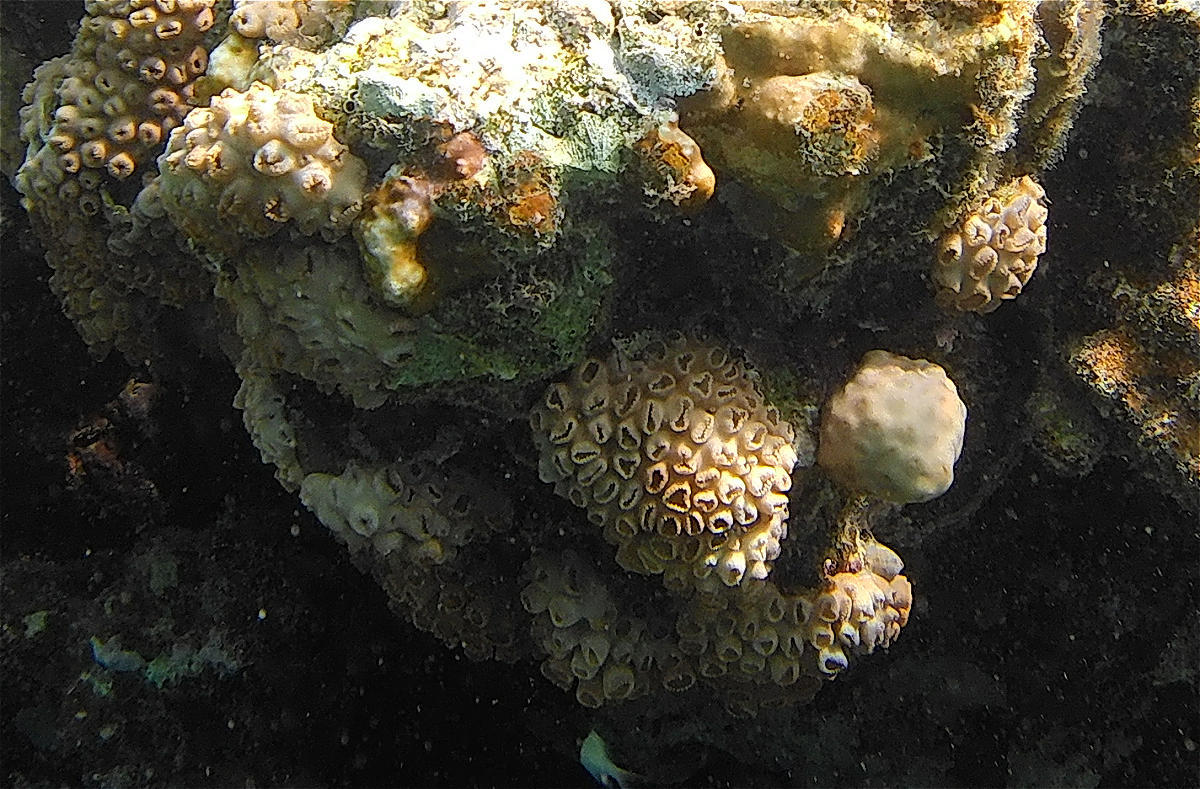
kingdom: Animalia
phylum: Cnidaria
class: Anthozoa
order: Zoantharia
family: Sphenopidae
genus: Palythoa
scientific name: Palythoa tuberculosa
